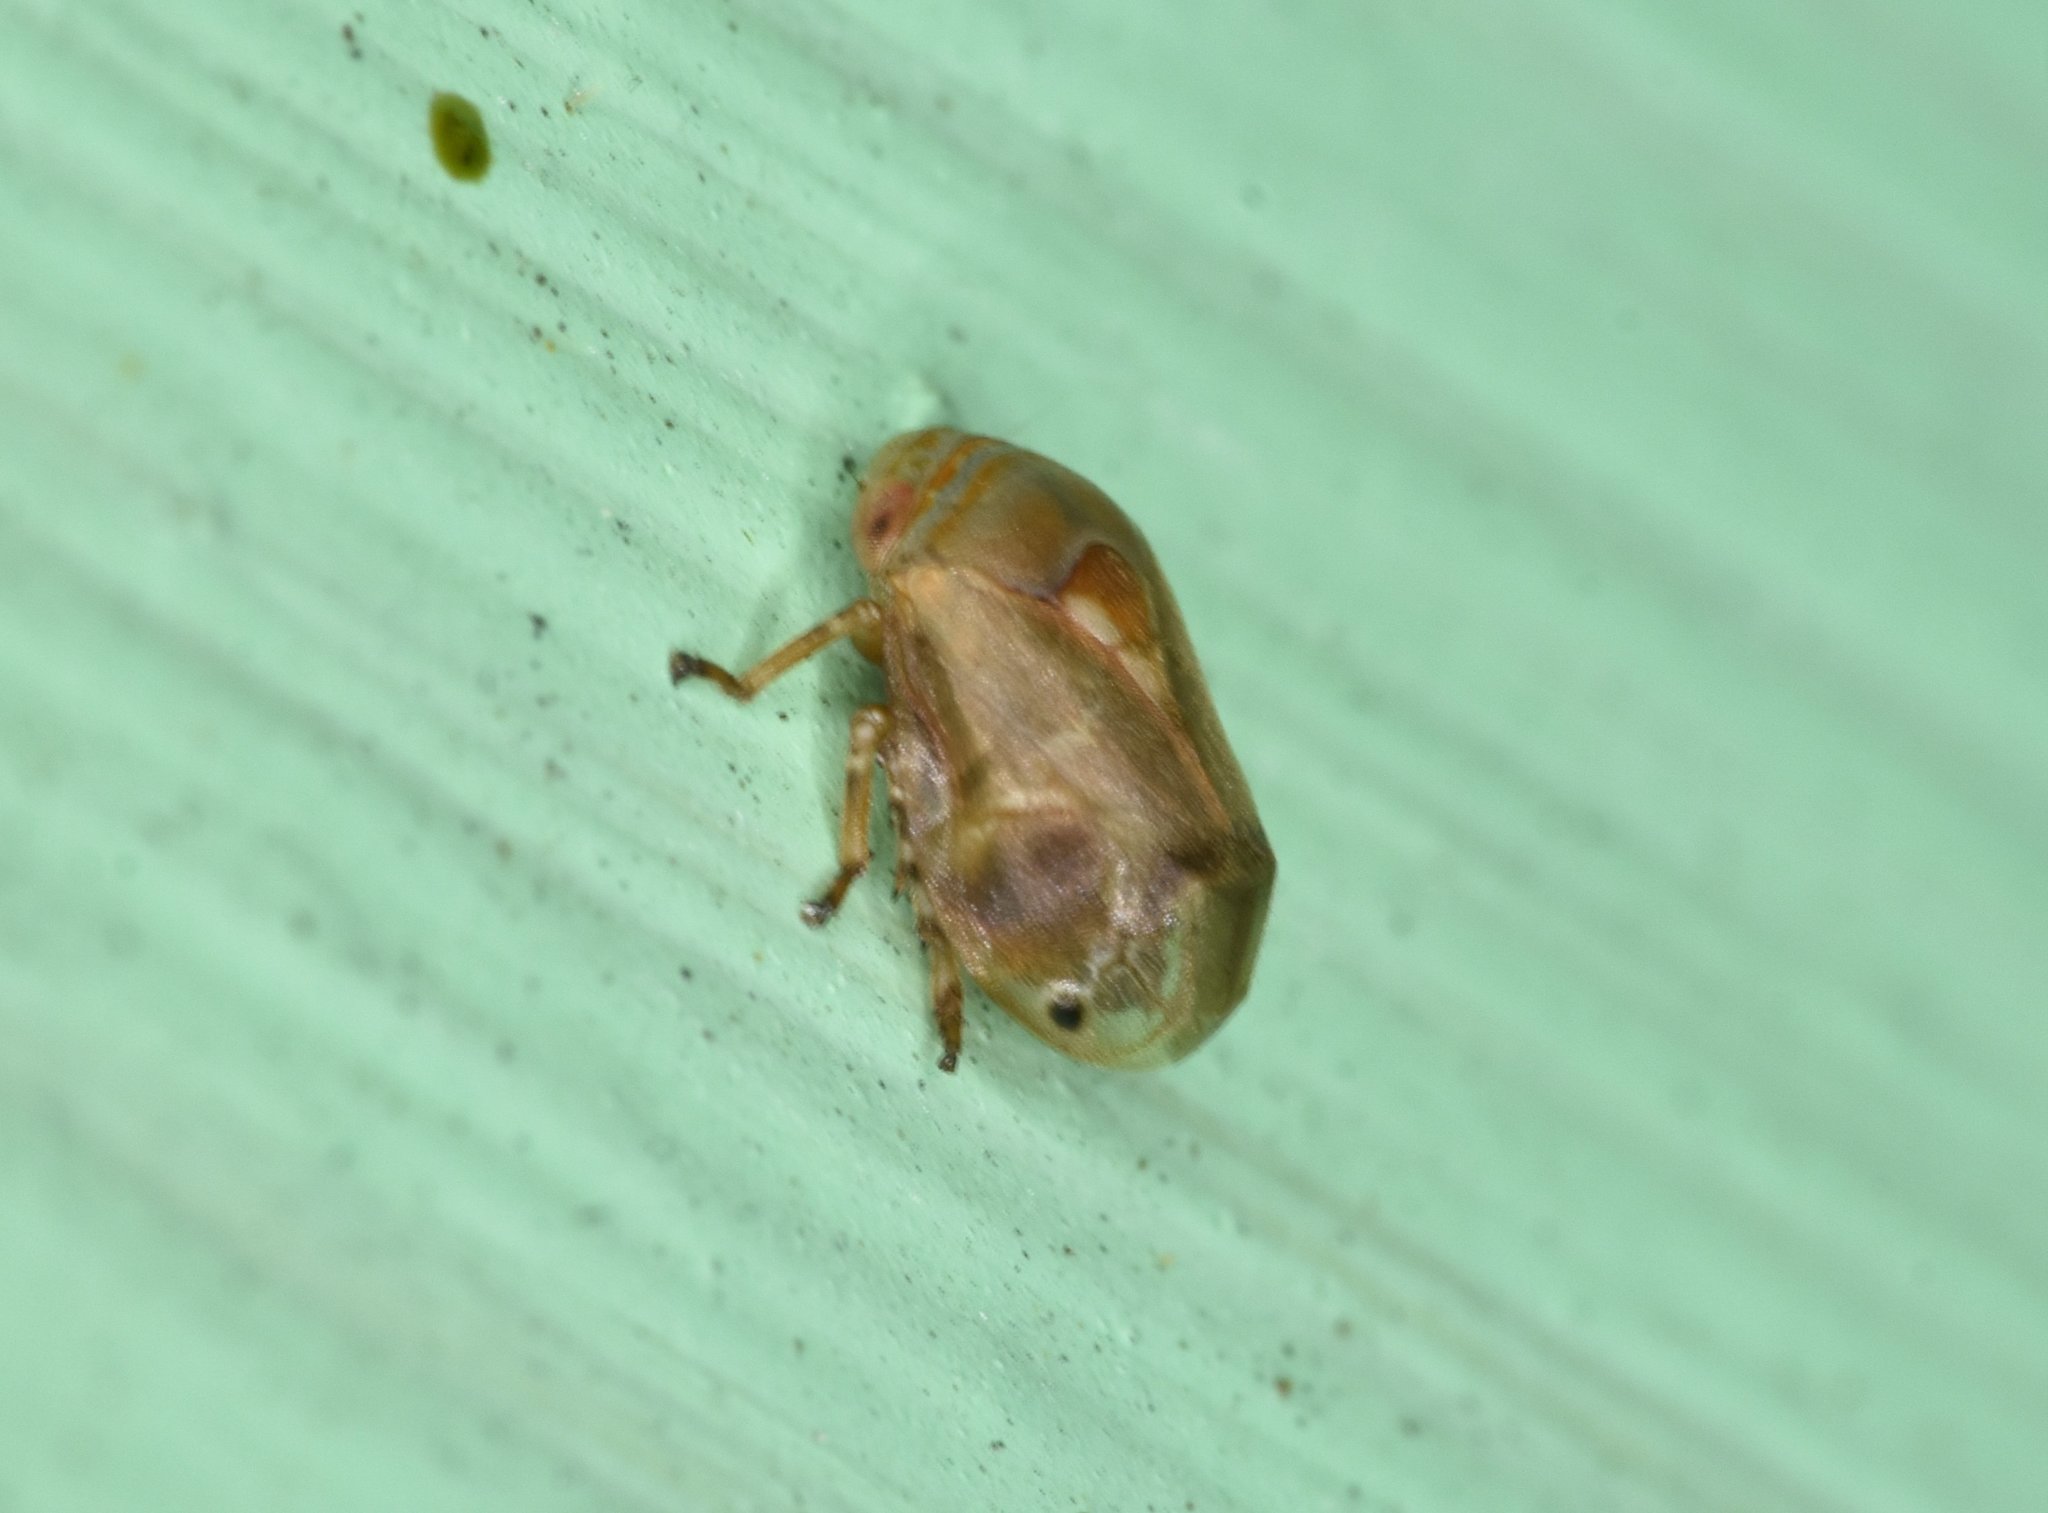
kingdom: Animalia
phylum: Arthropoda
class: Insecta
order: Hemiptera
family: Clastopteridae
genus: Clastoptera
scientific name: Clastoptera querci
